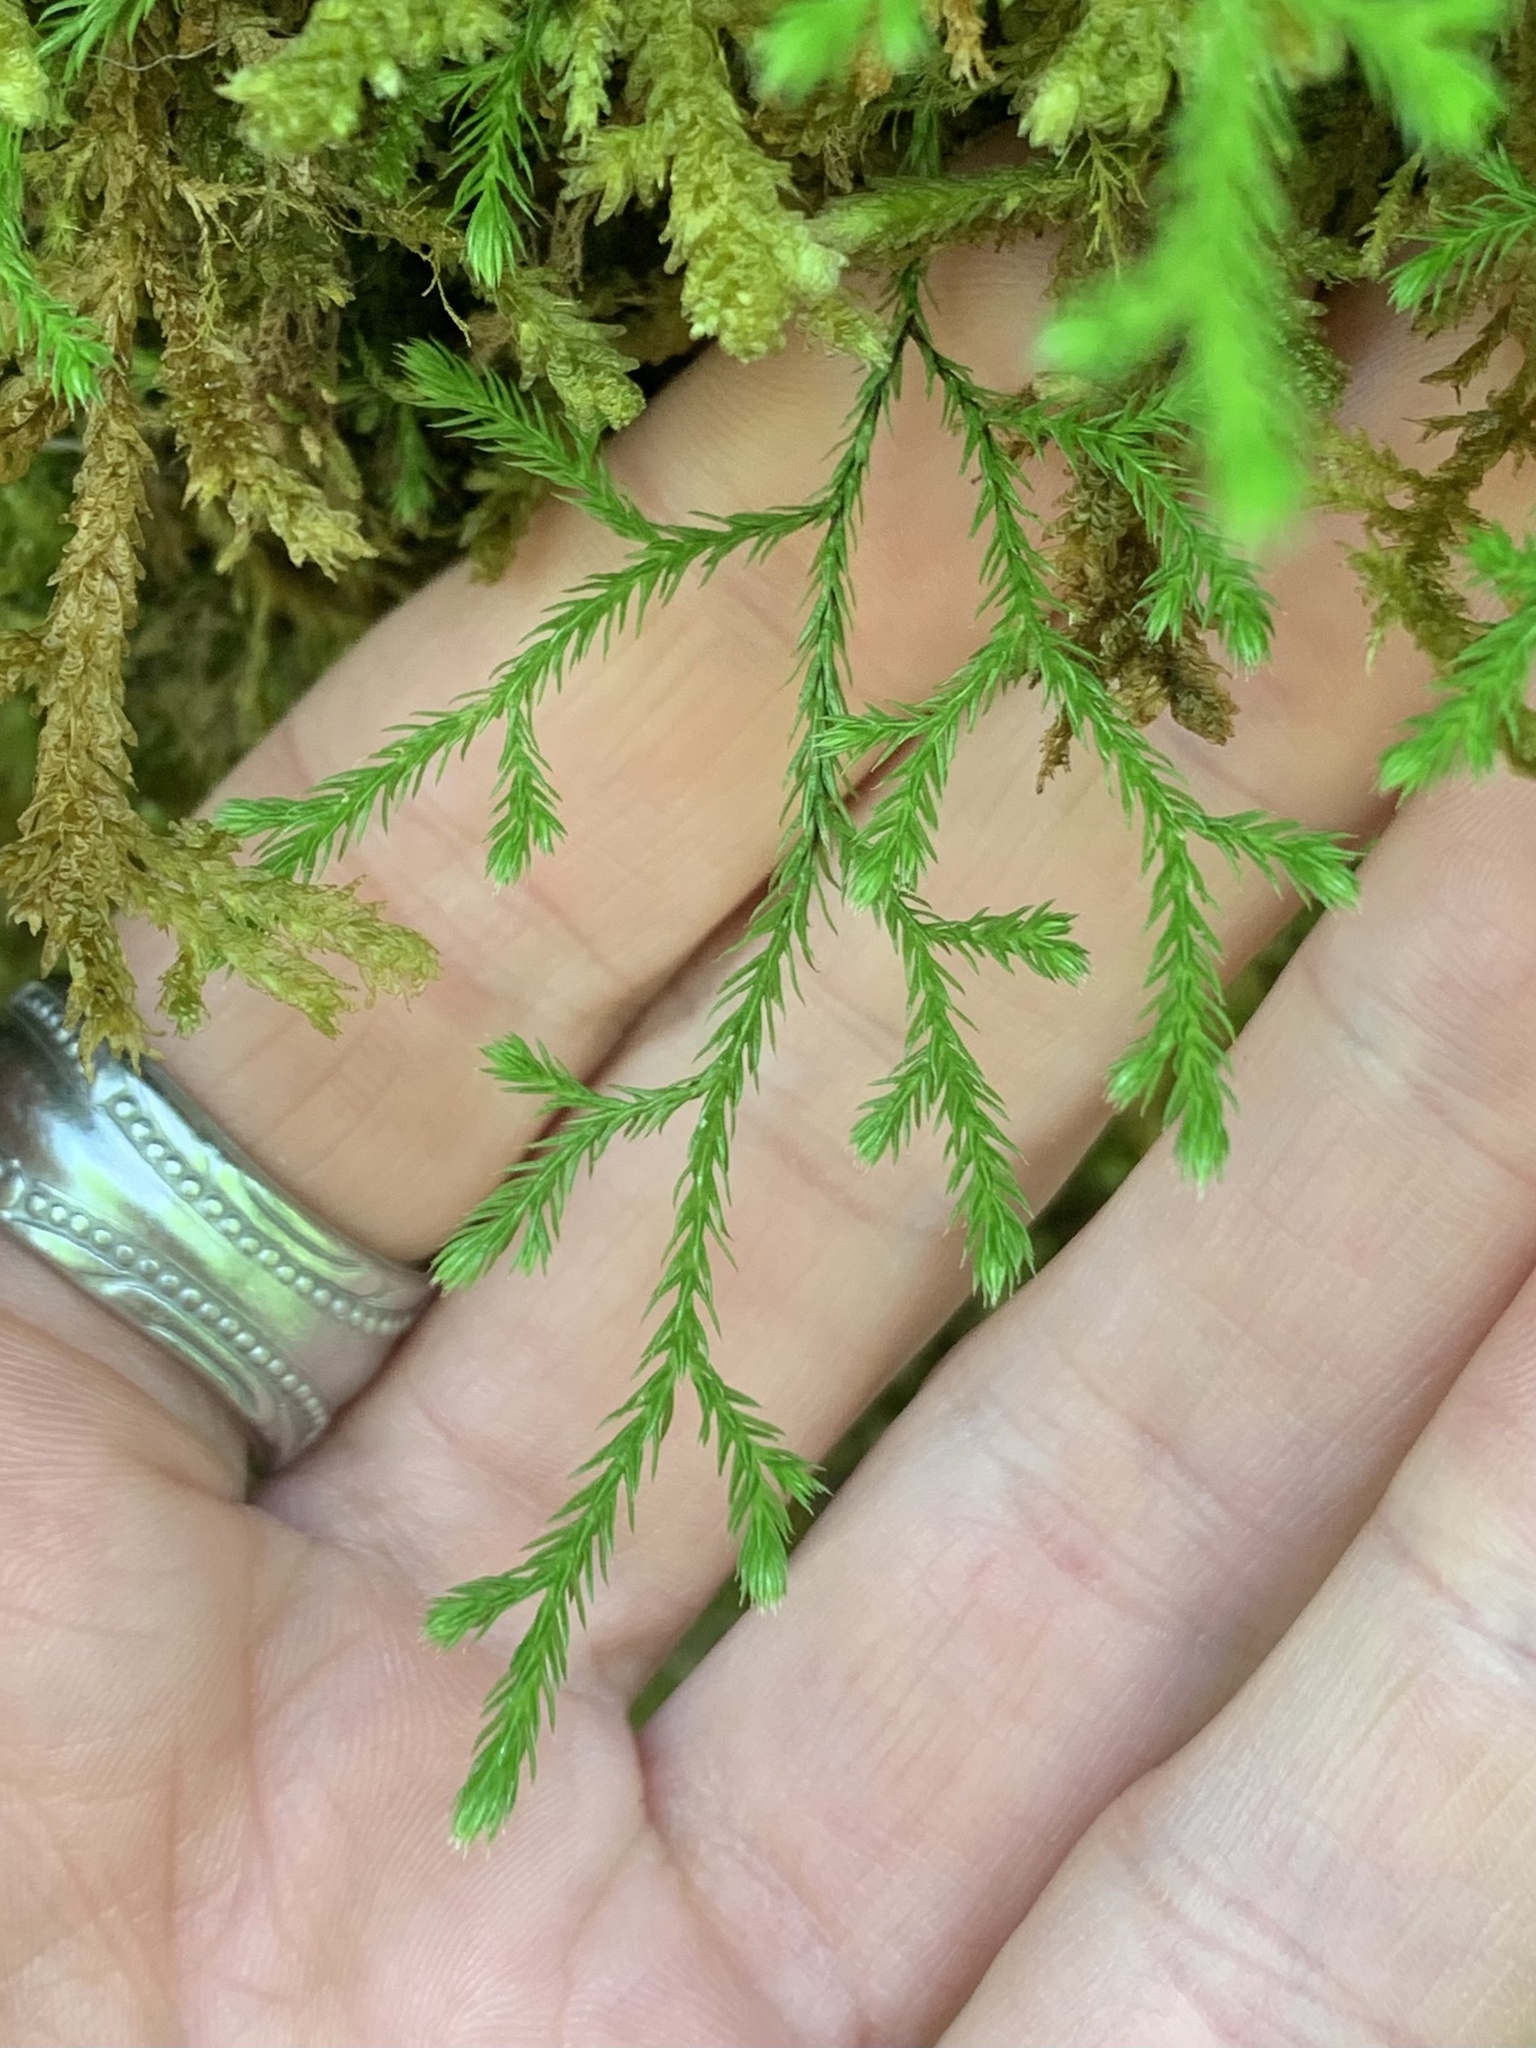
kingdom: Plantae
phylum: Tracheophyta
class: Lycopodiopsida
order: Selaginellales
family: Selaginellaceae
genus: Selaginella
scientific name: Selaginella oregana
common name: Oregon selaginella
